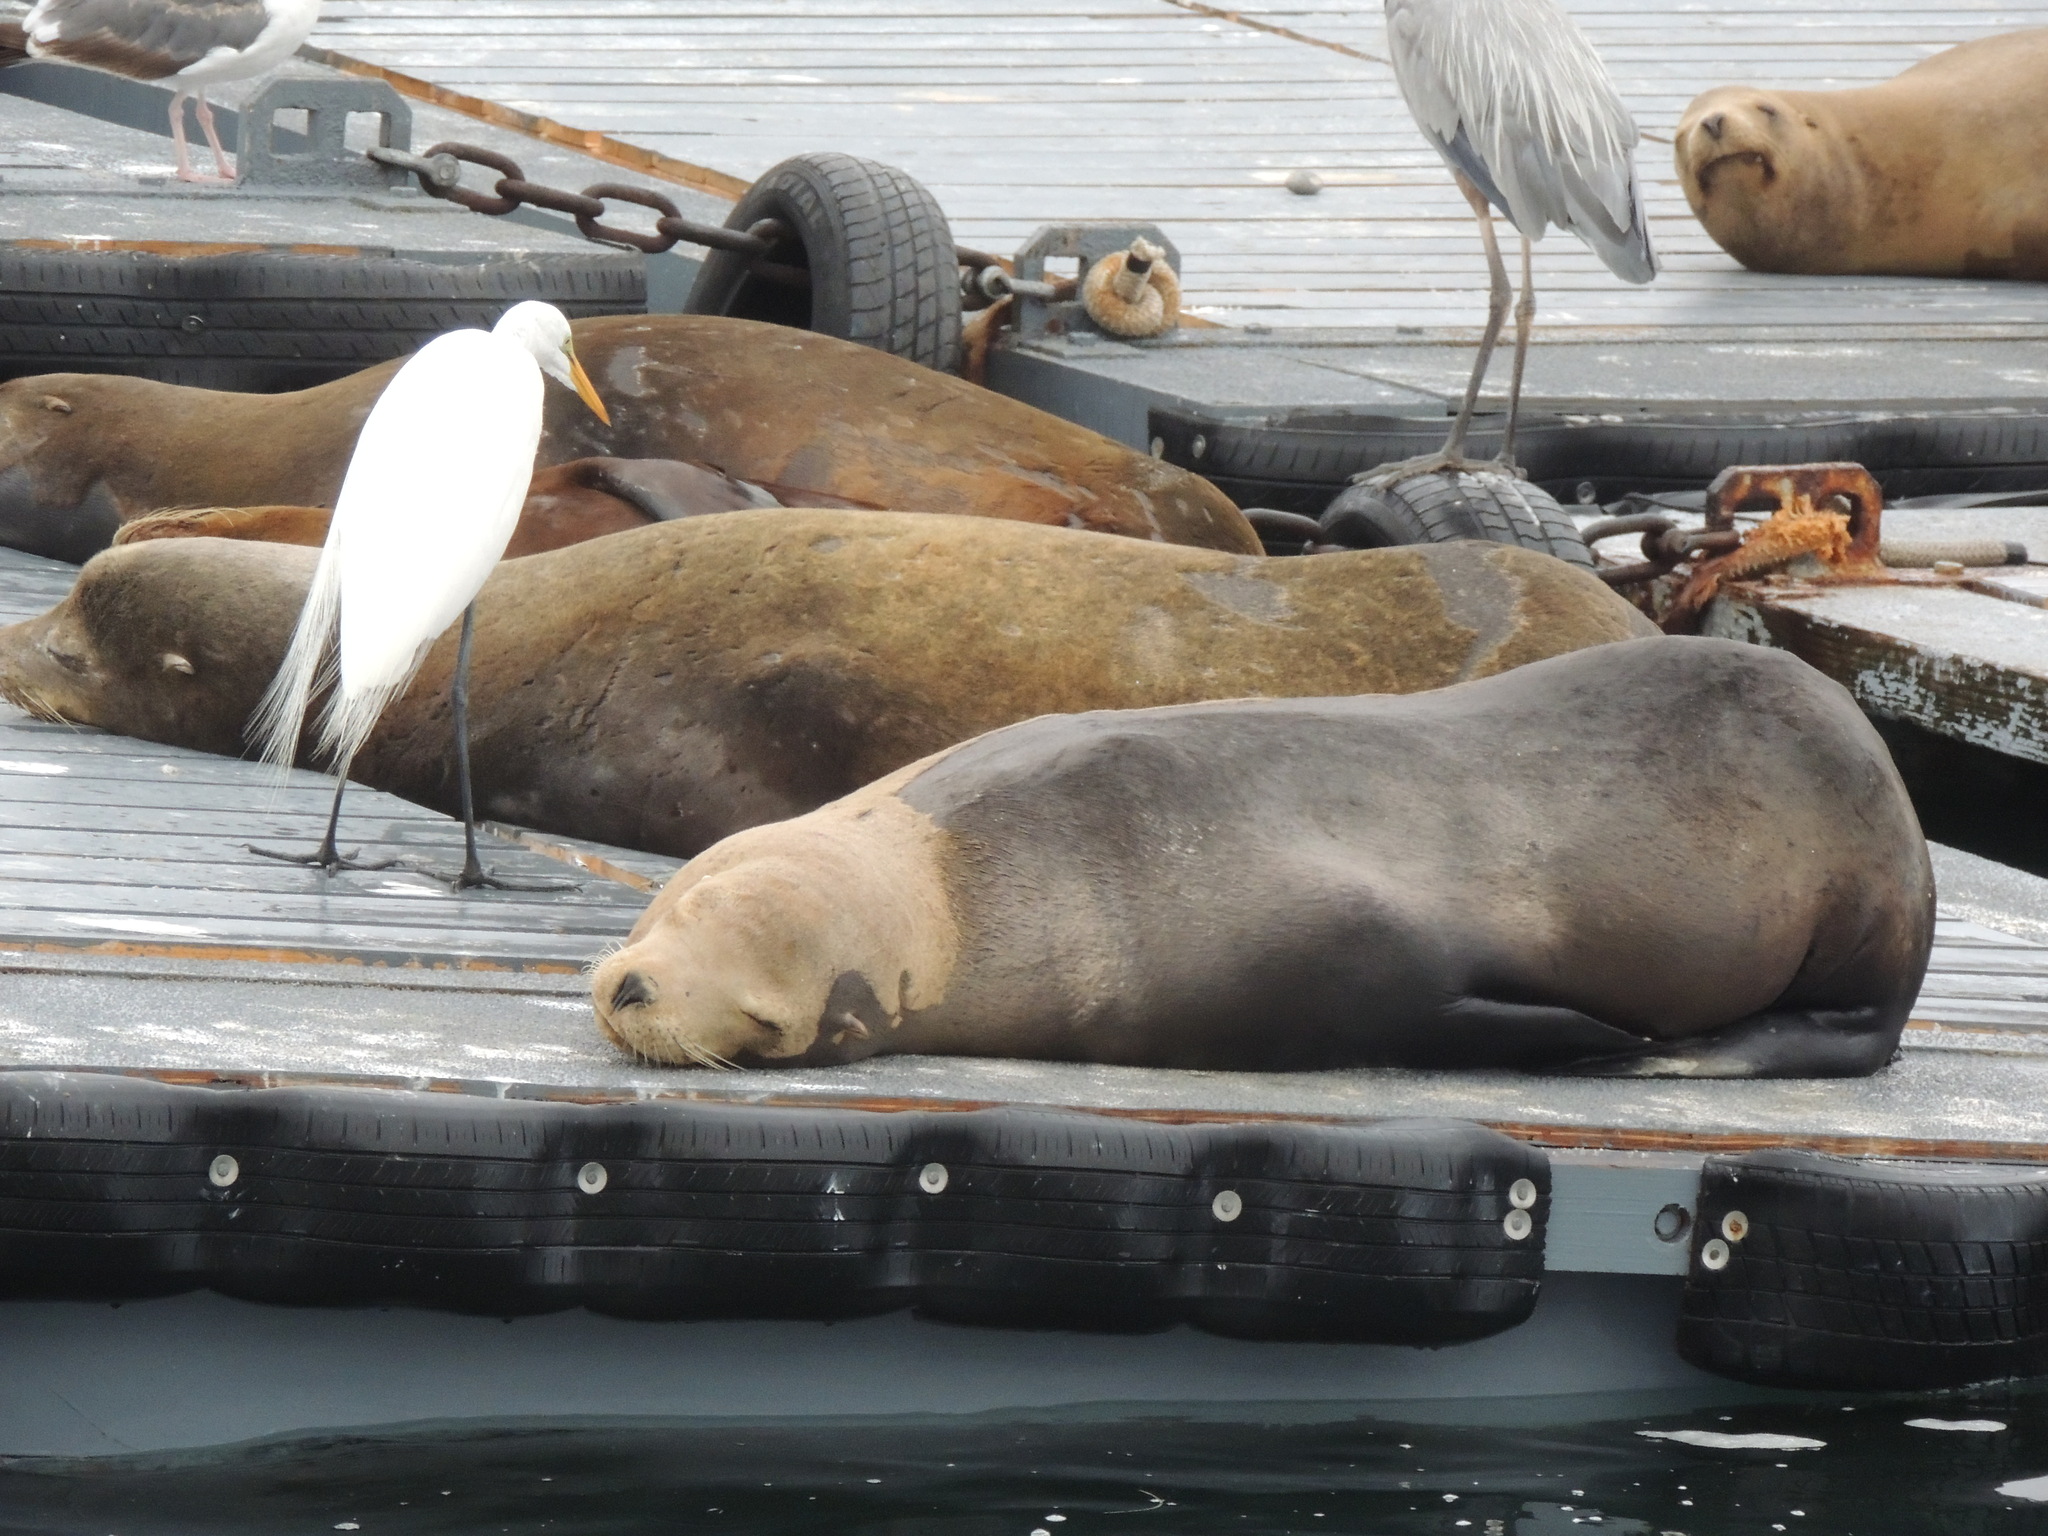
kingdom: Animalia
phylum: Chordata
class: Mammalia
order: Carnivora
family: Otariidae
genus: Zalophus
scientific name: Zalophus californianus
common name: California sea lion
